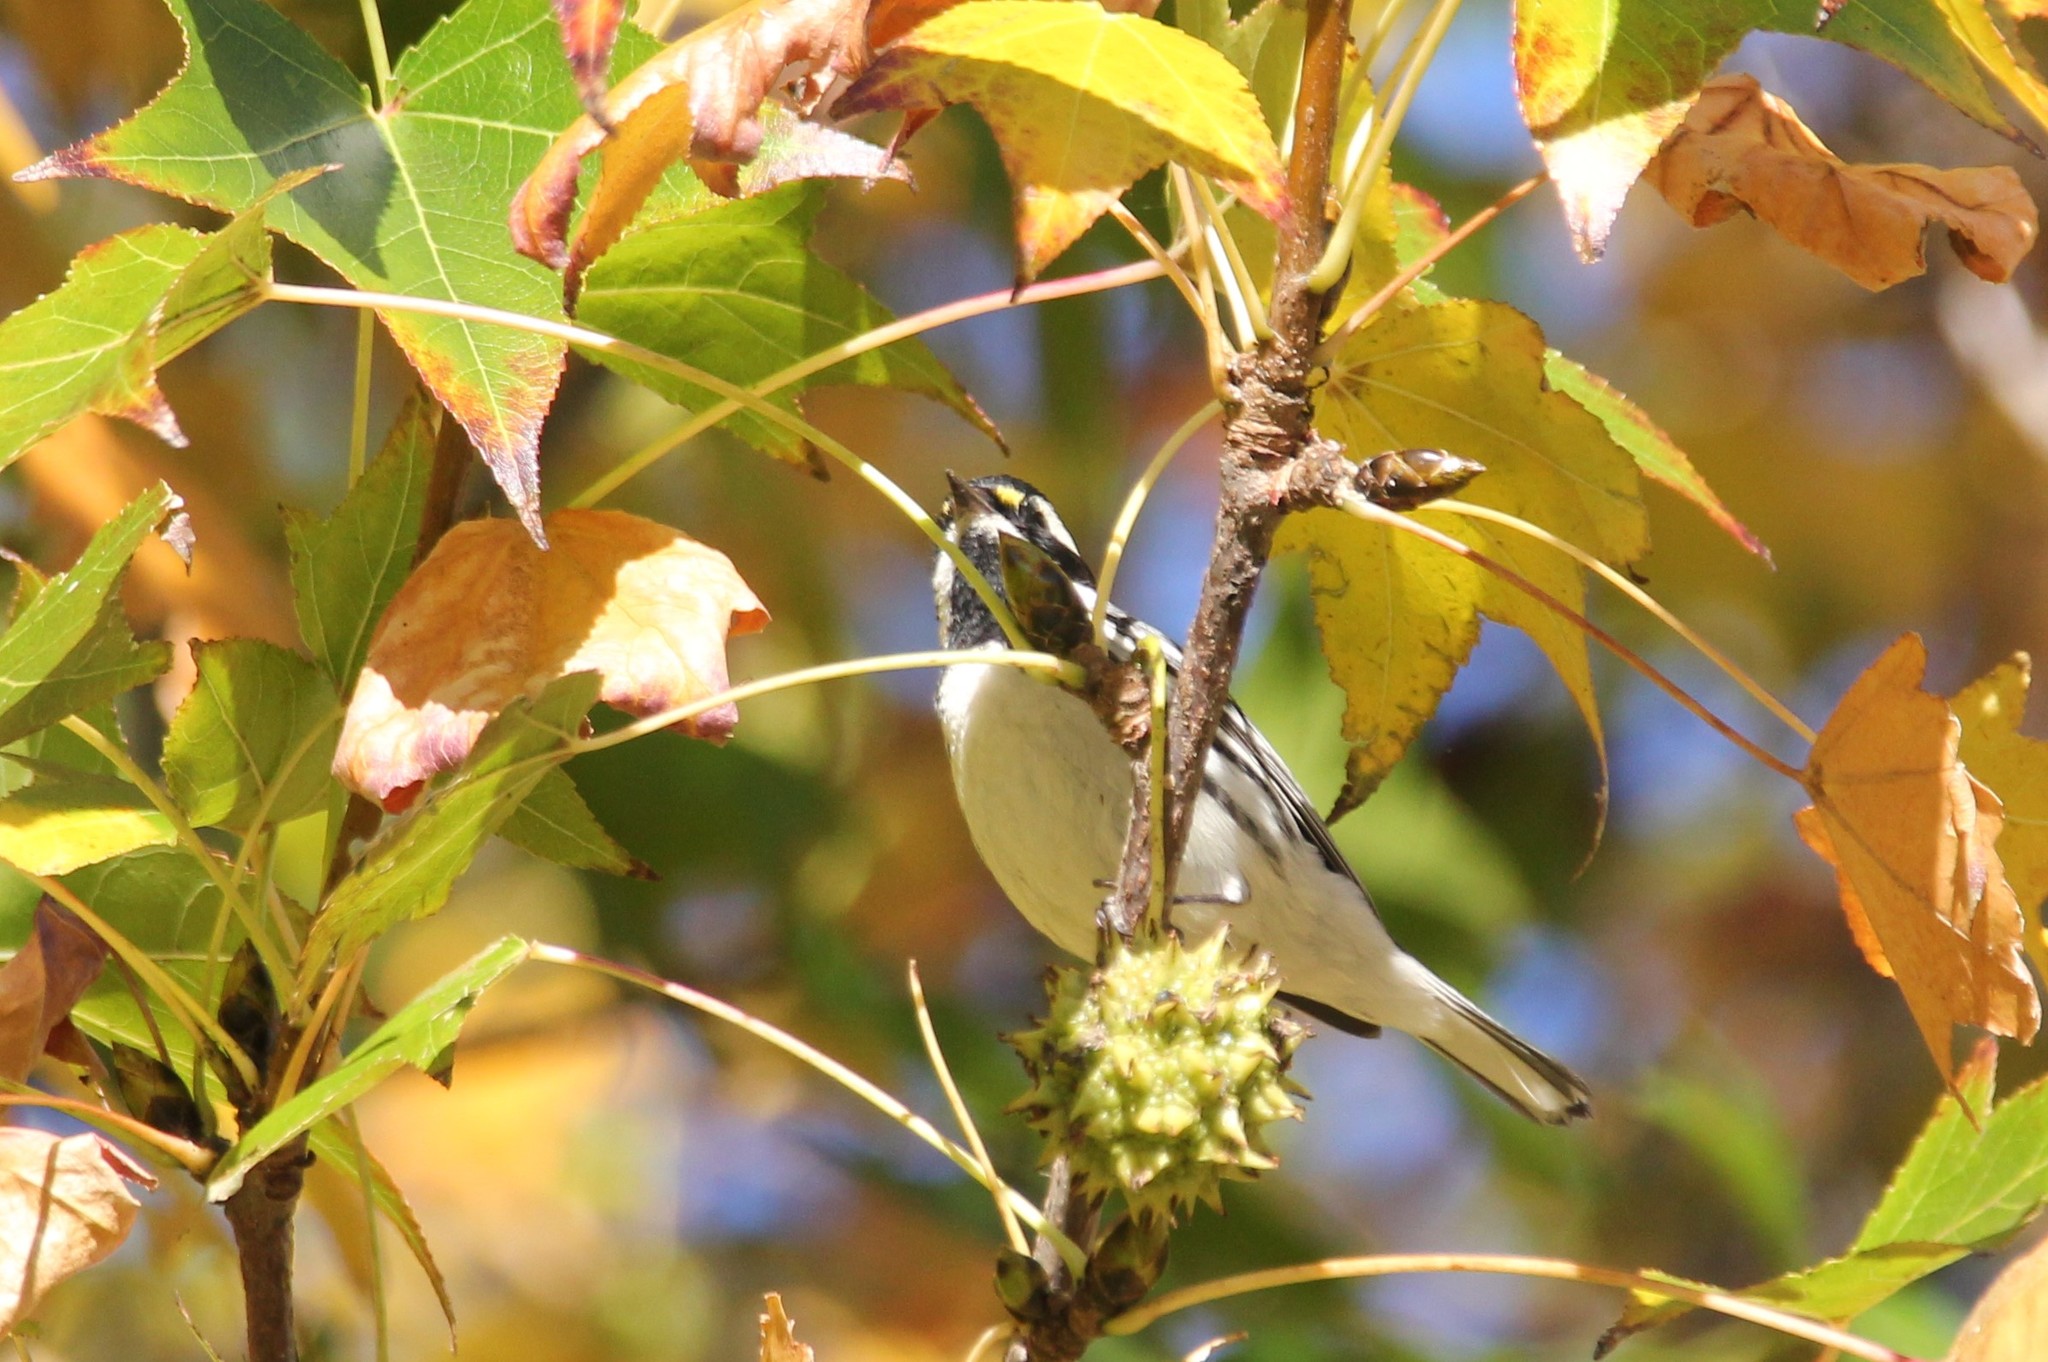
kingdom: Animalia
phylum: Chordata
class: Aves
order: Passeriformes
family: Parulidae
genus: Setophaga
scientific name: Setophaga nigrescens
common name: Black-throated gray warbler
